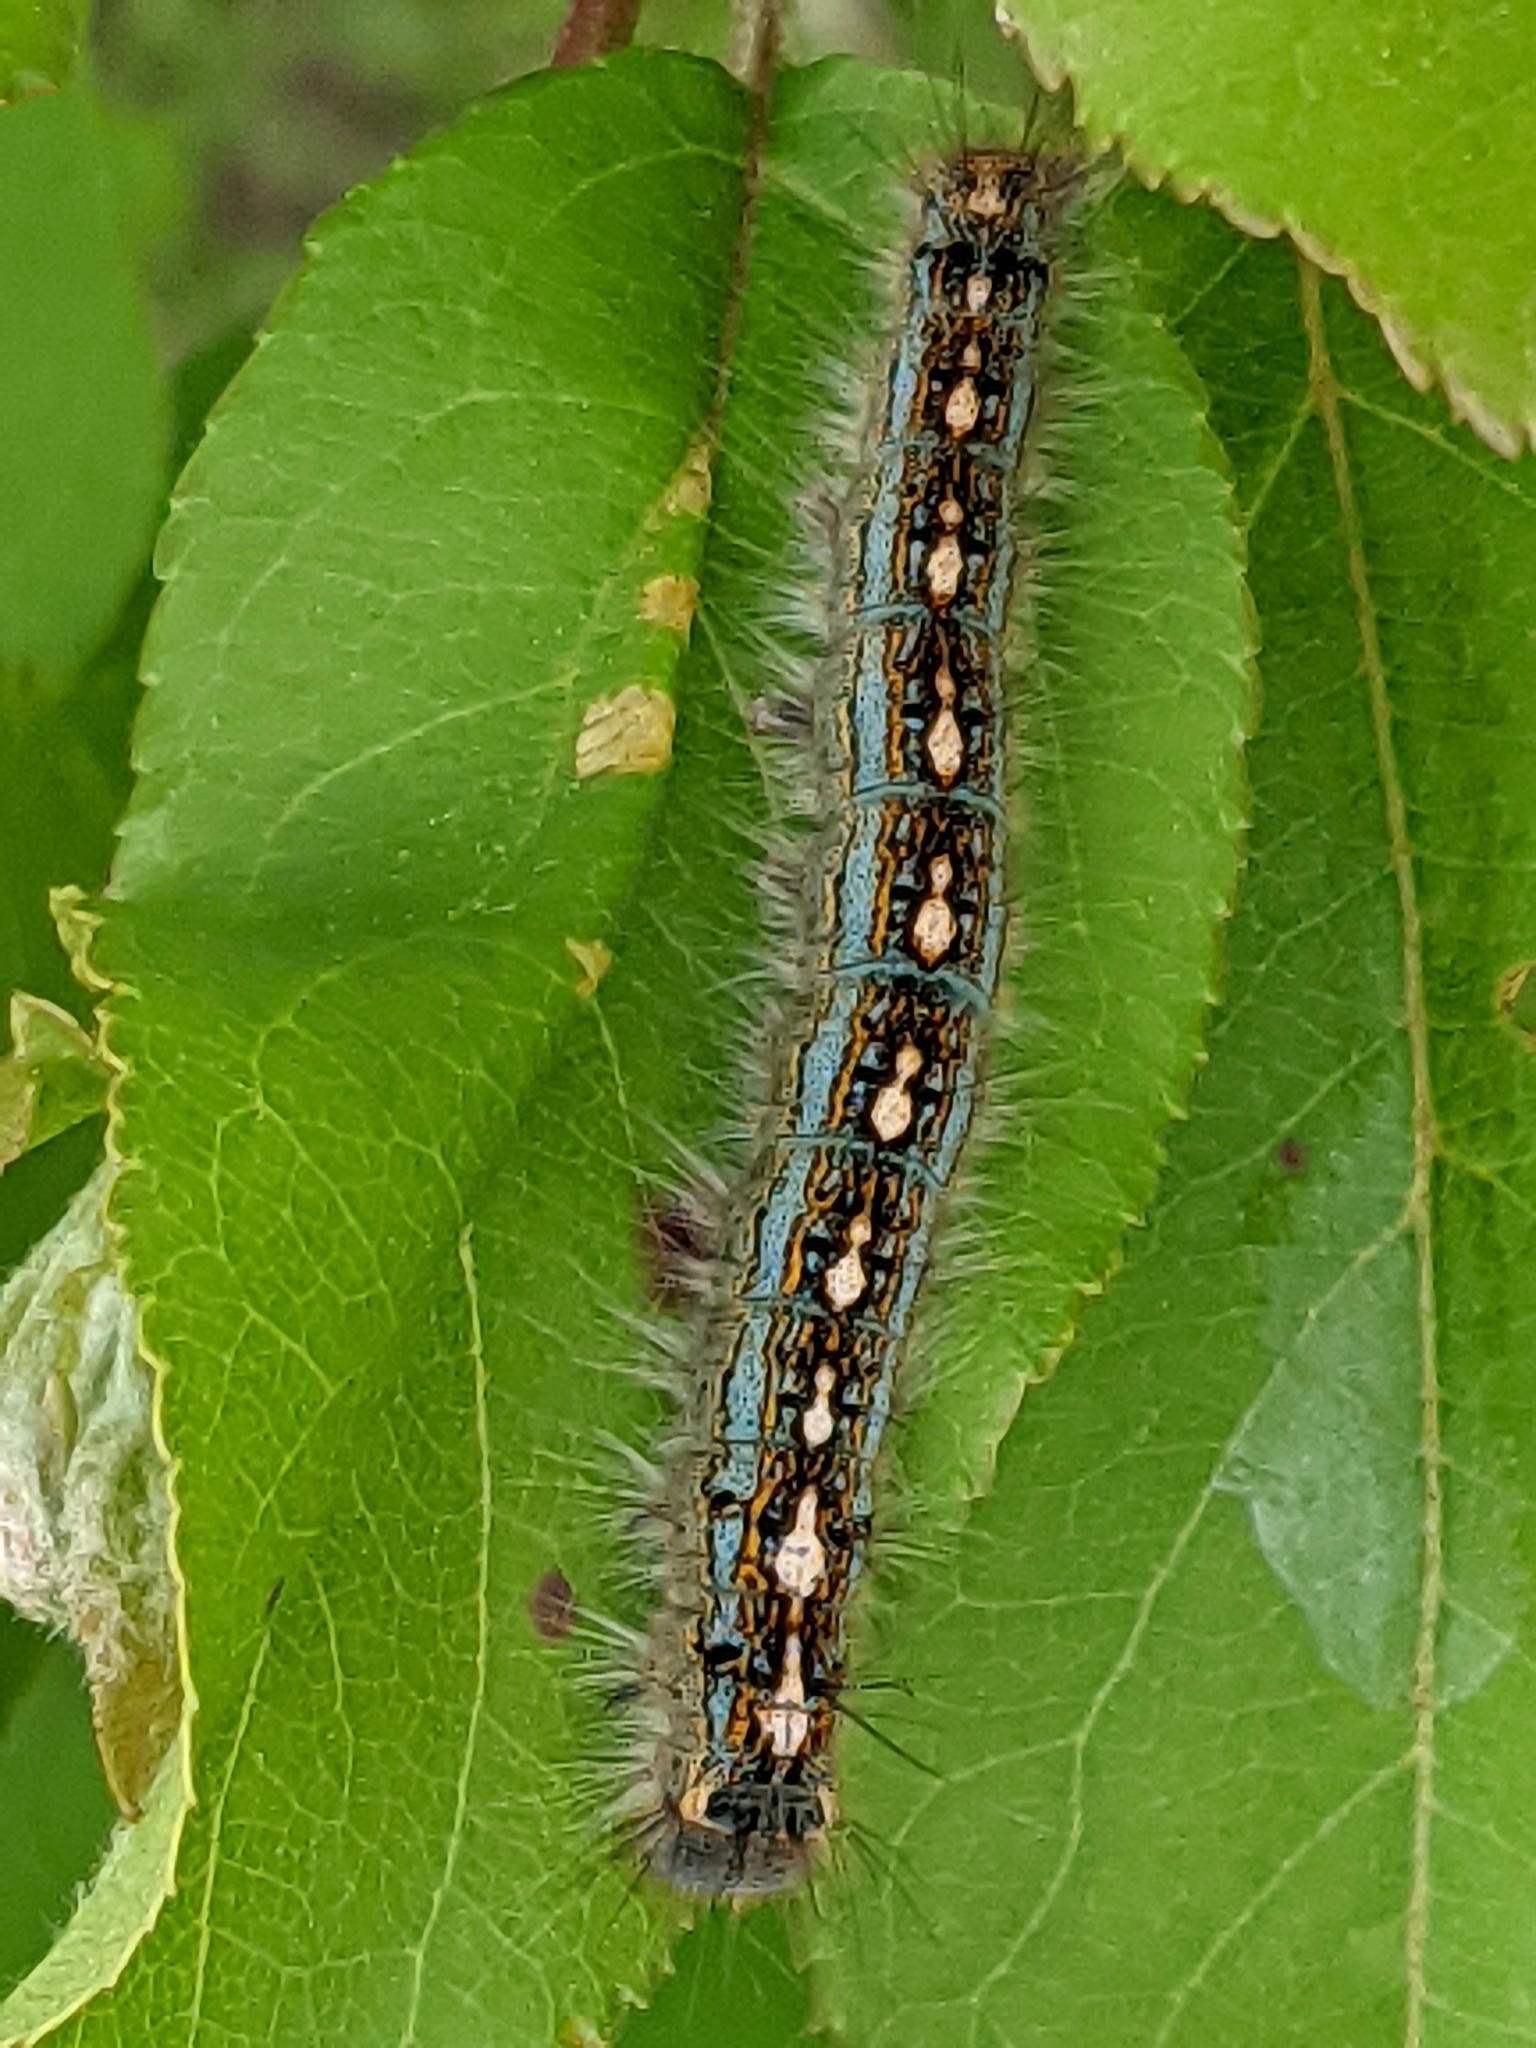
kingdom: Animalia
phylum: Arthropoda
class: Insecta
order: Lepidoptera
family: Lasiocampidae
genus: Malacosoma
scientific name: Malacosoma disstria
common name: Forest tent caterpillar
